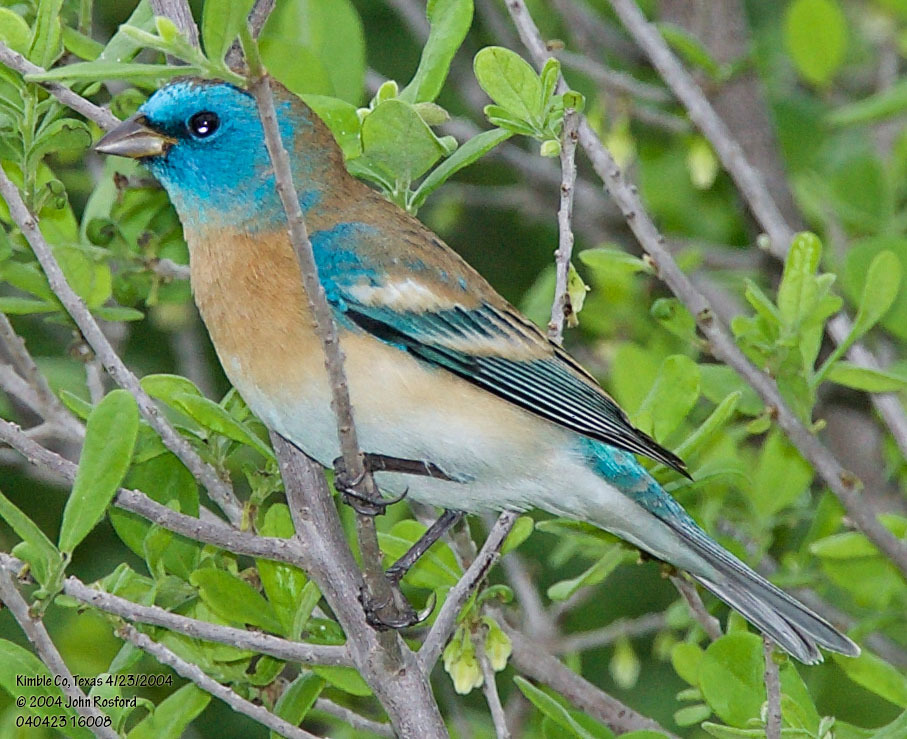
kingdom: Animalia
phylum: Chordata
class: Aves
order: Passeriformes
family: Cardinalidae
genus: Passerina
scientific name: Passerina amoena
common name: Lazuli bunting
